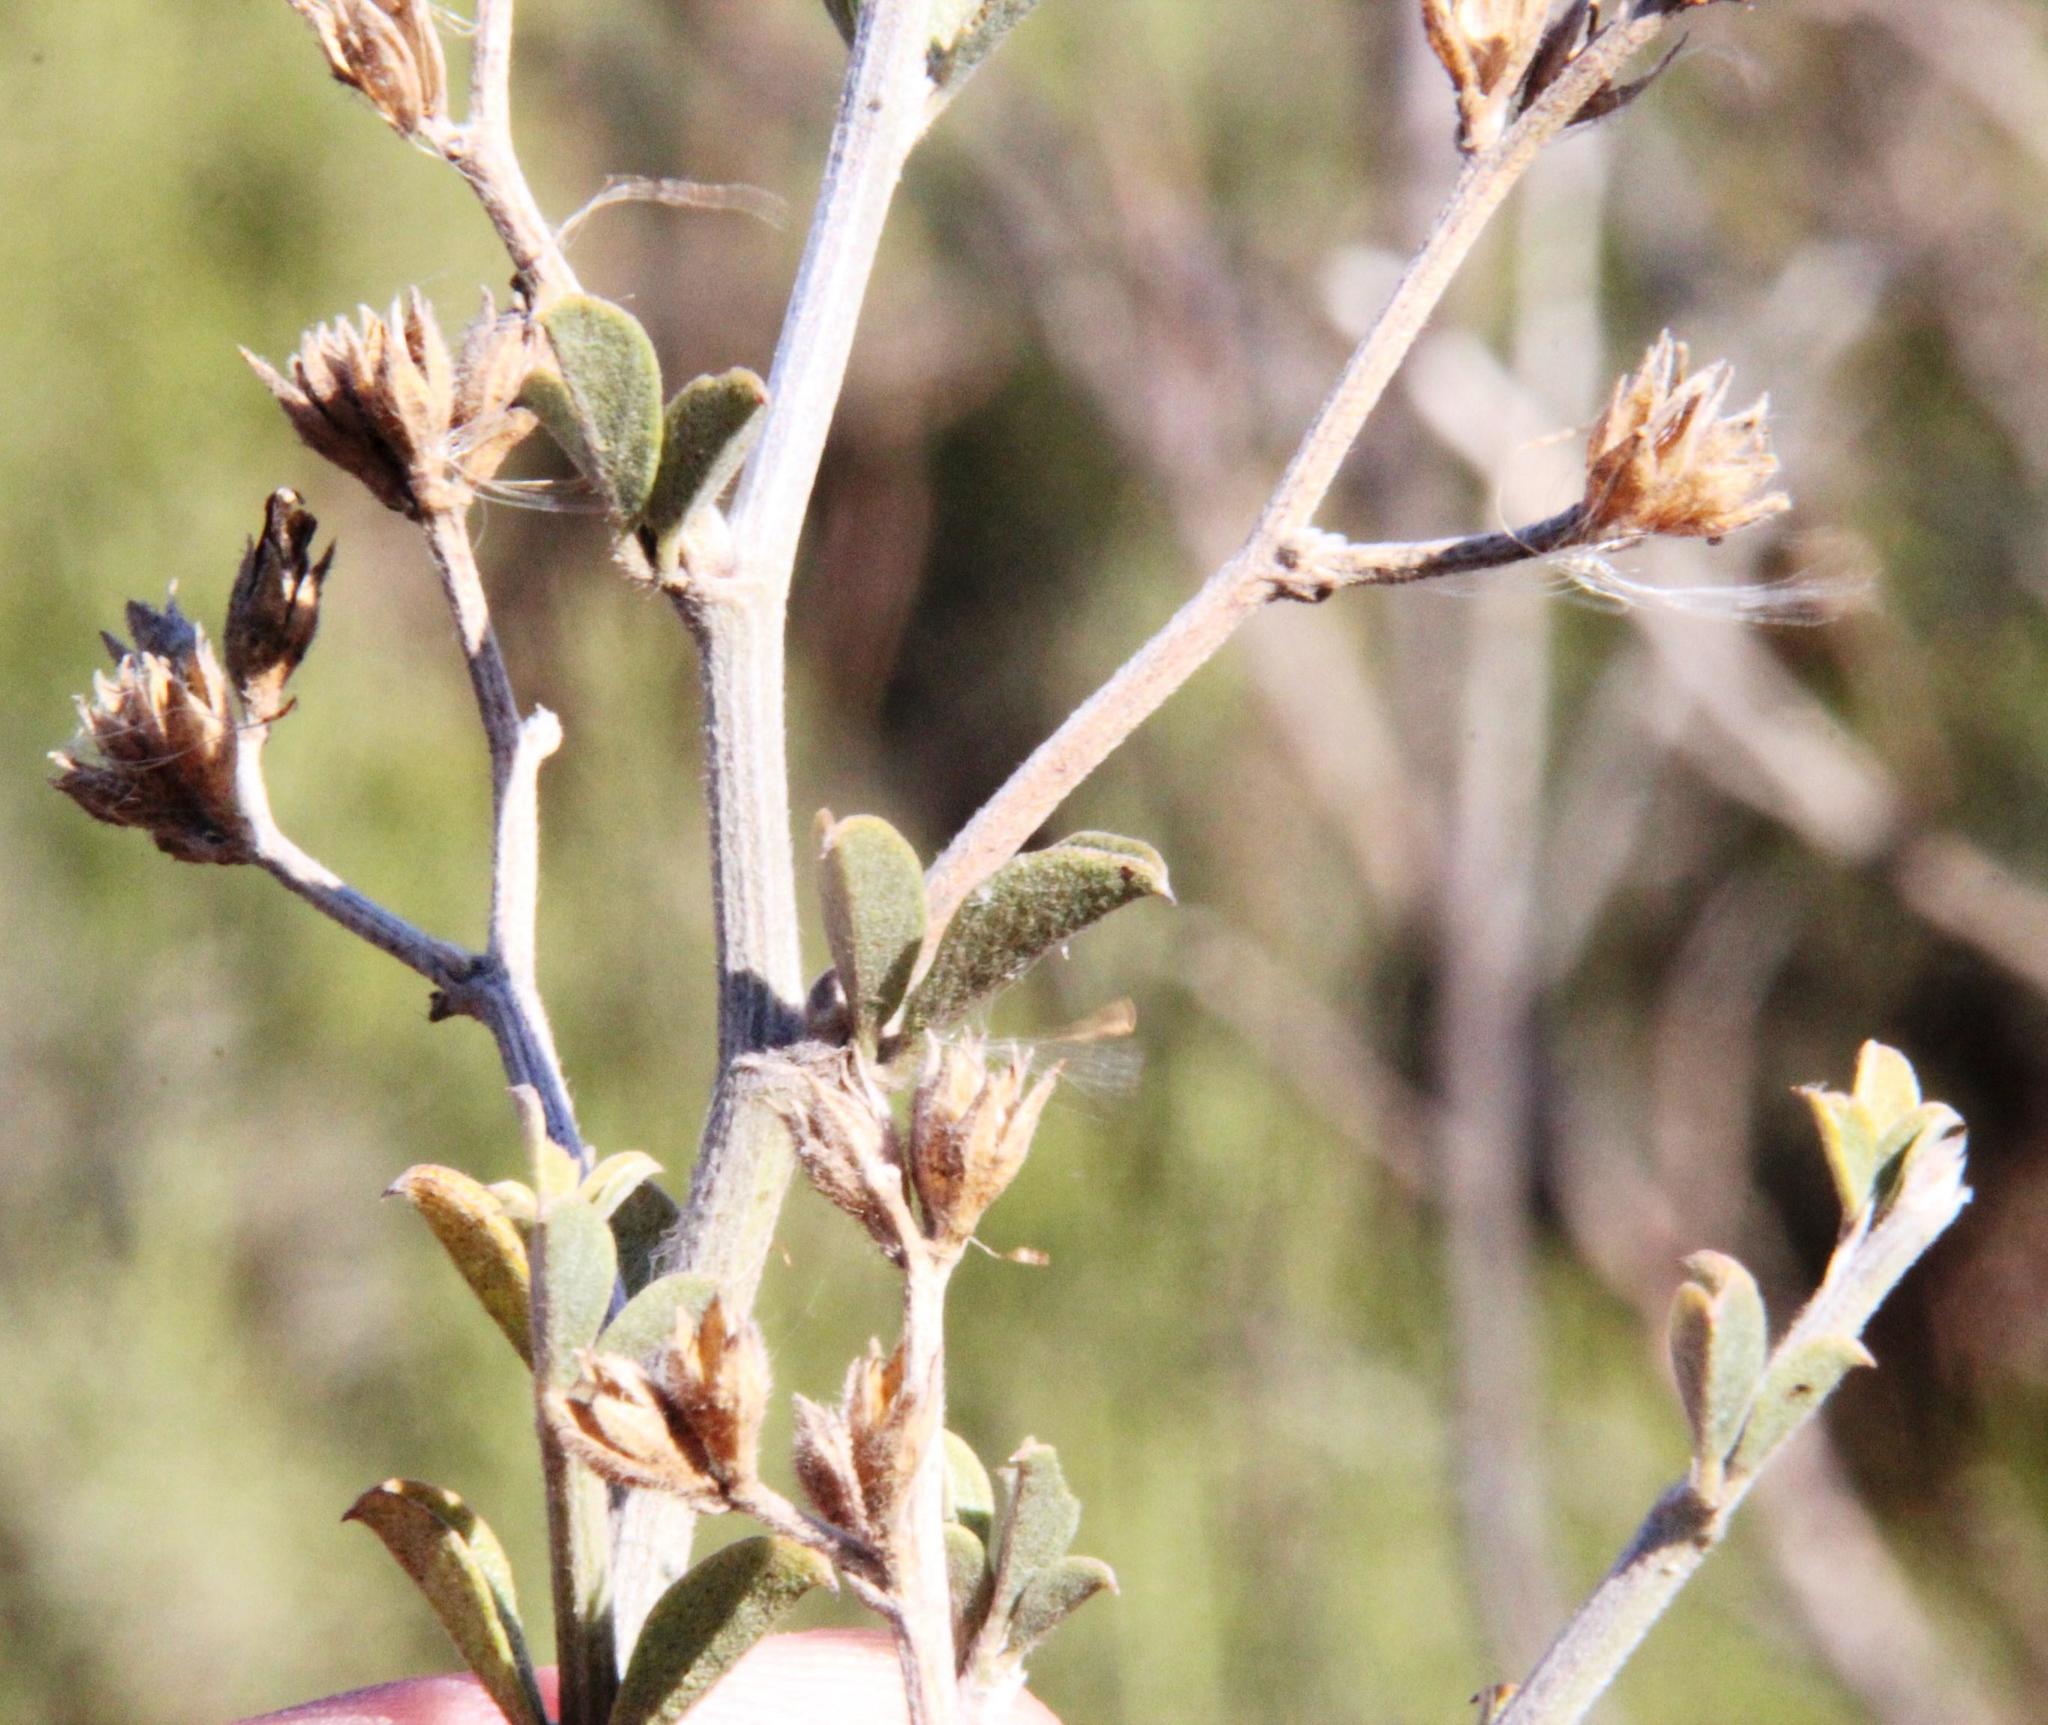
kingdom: Plantae
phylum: Tracheophyta
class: Magnoliopsida
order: Fabales
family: Fabaceae
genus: Psoralea
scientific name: Psoralea hirta
